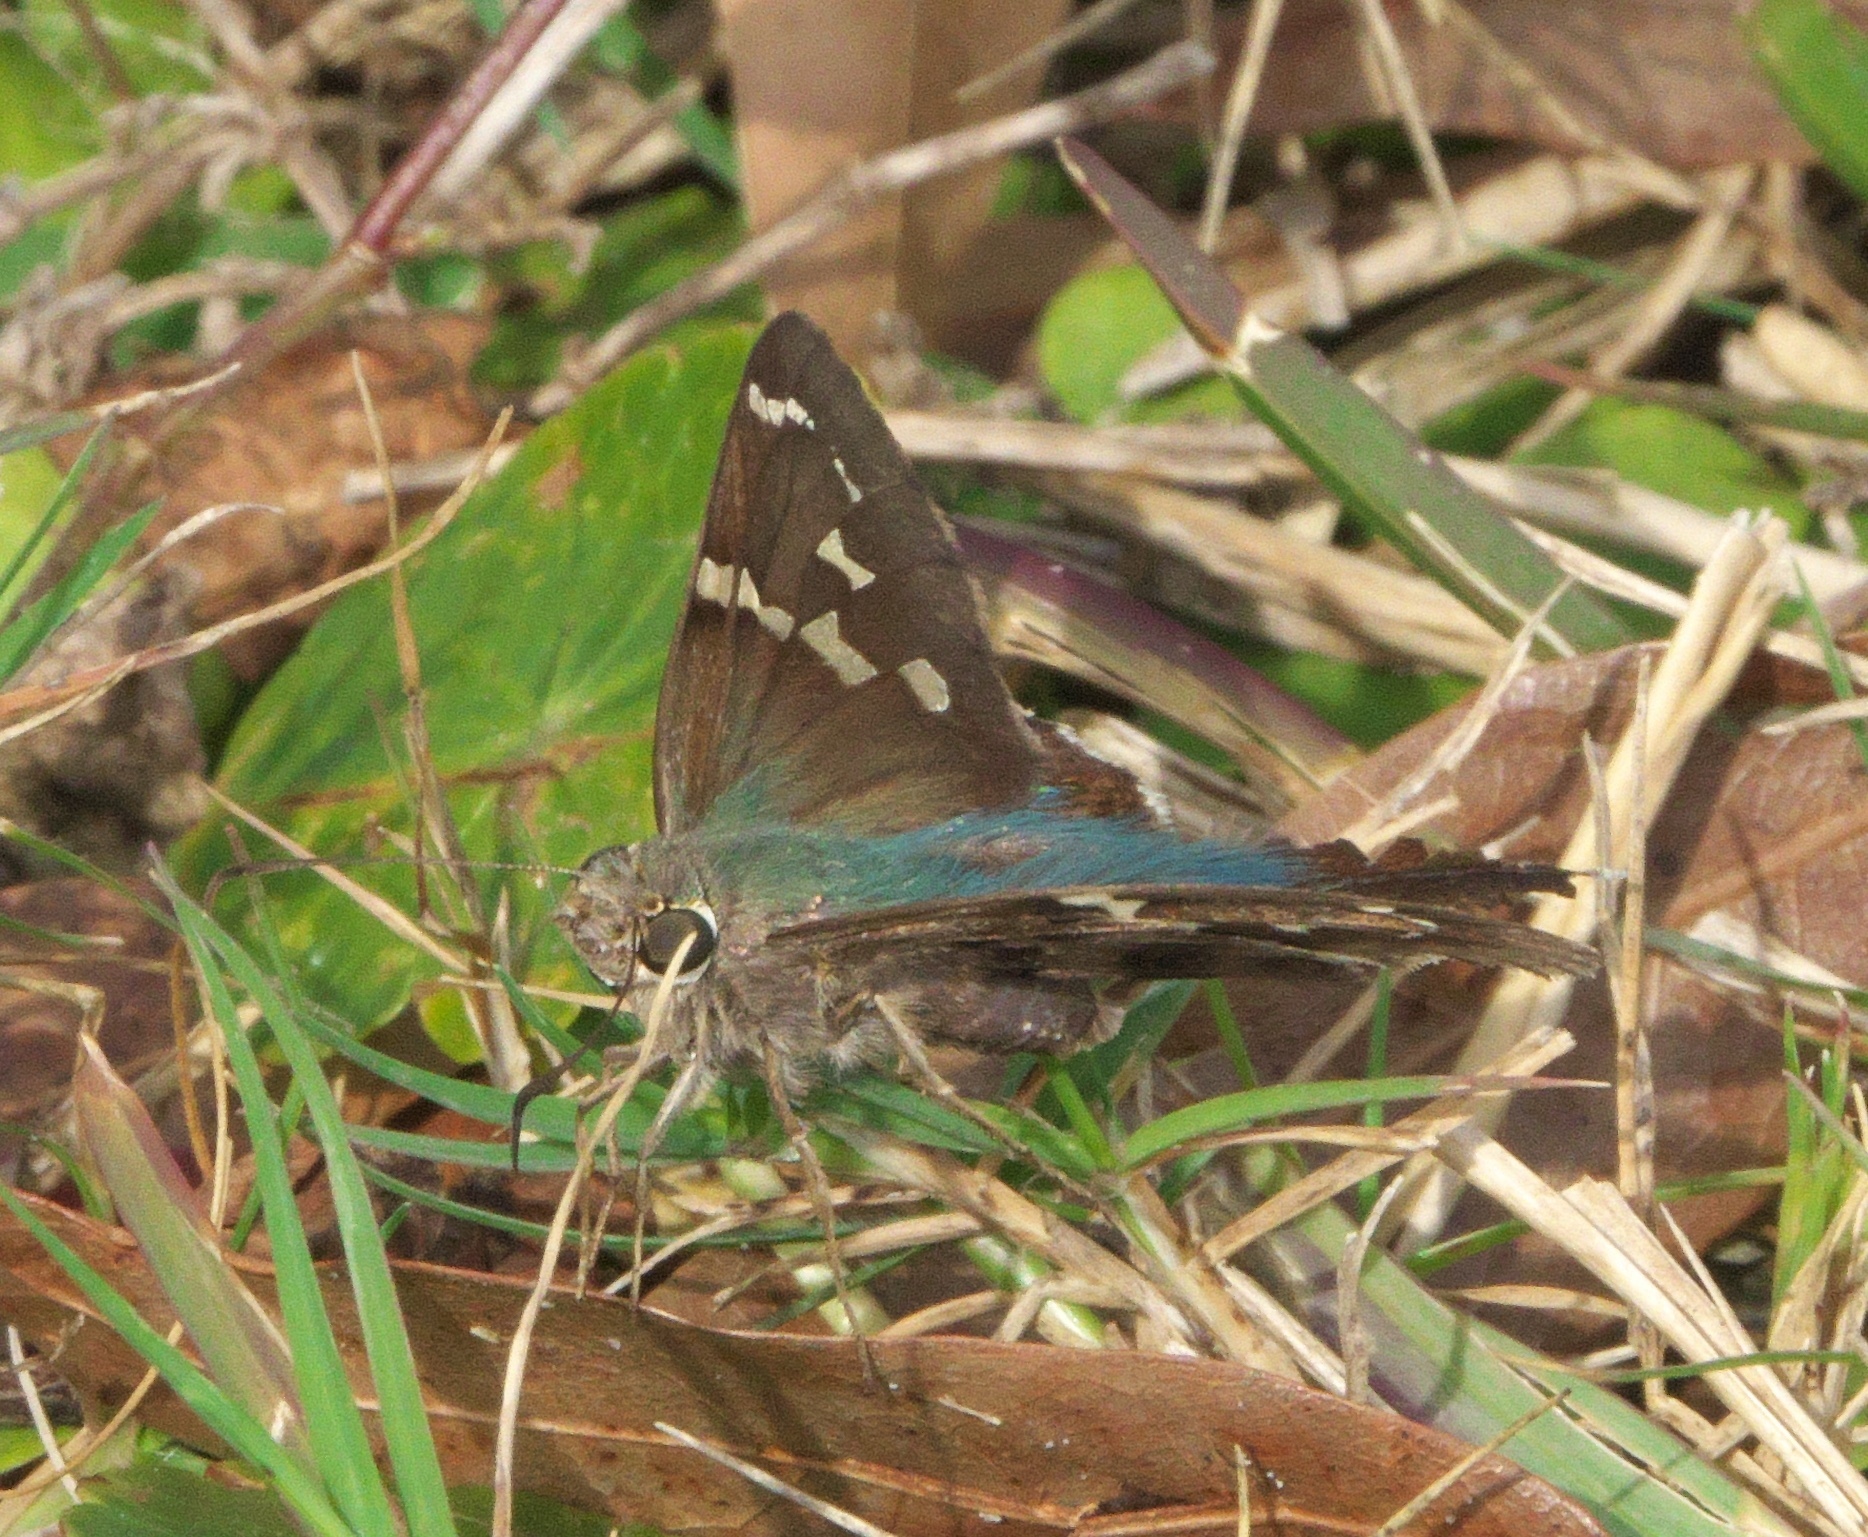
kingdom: Animalia
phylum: Arthropoda
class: Insecta
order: Lepidoptera
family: Hesperiidae
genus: Urbanus
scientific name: Urbanus proteus
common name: Long-tailed skipper
